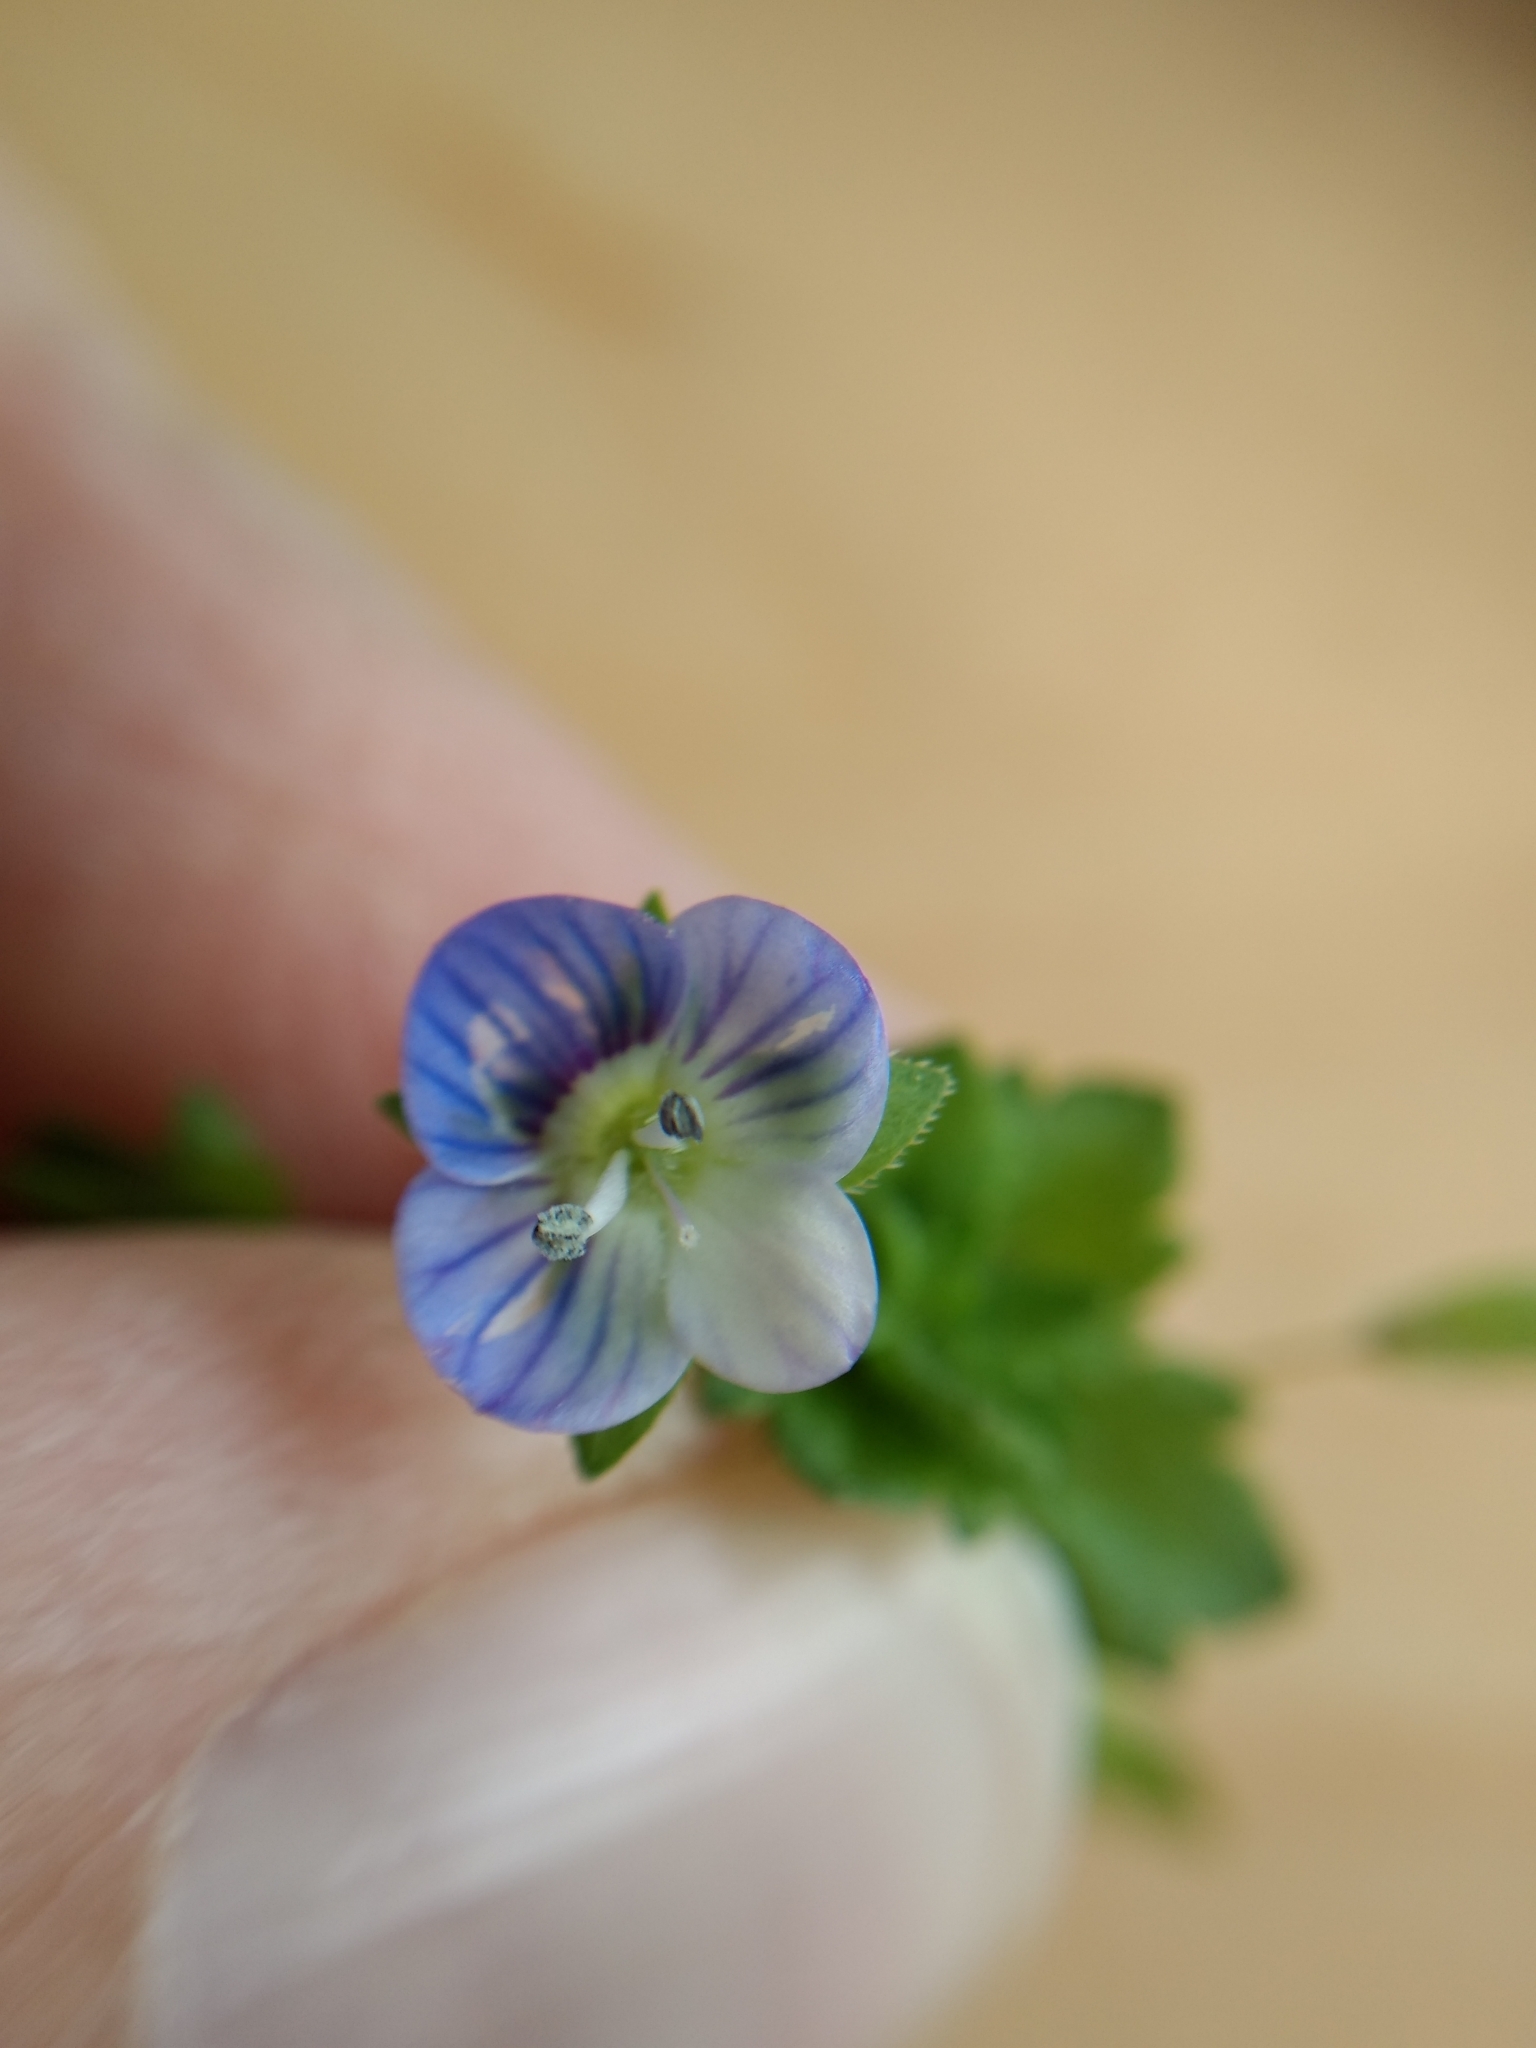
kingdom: Plantae
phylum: Tracheophyta
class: Magnoliopsida
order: Lamiales
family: Plantaginaceae
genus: Veronica
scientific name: Veronica persica
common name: Common field-speedwell
